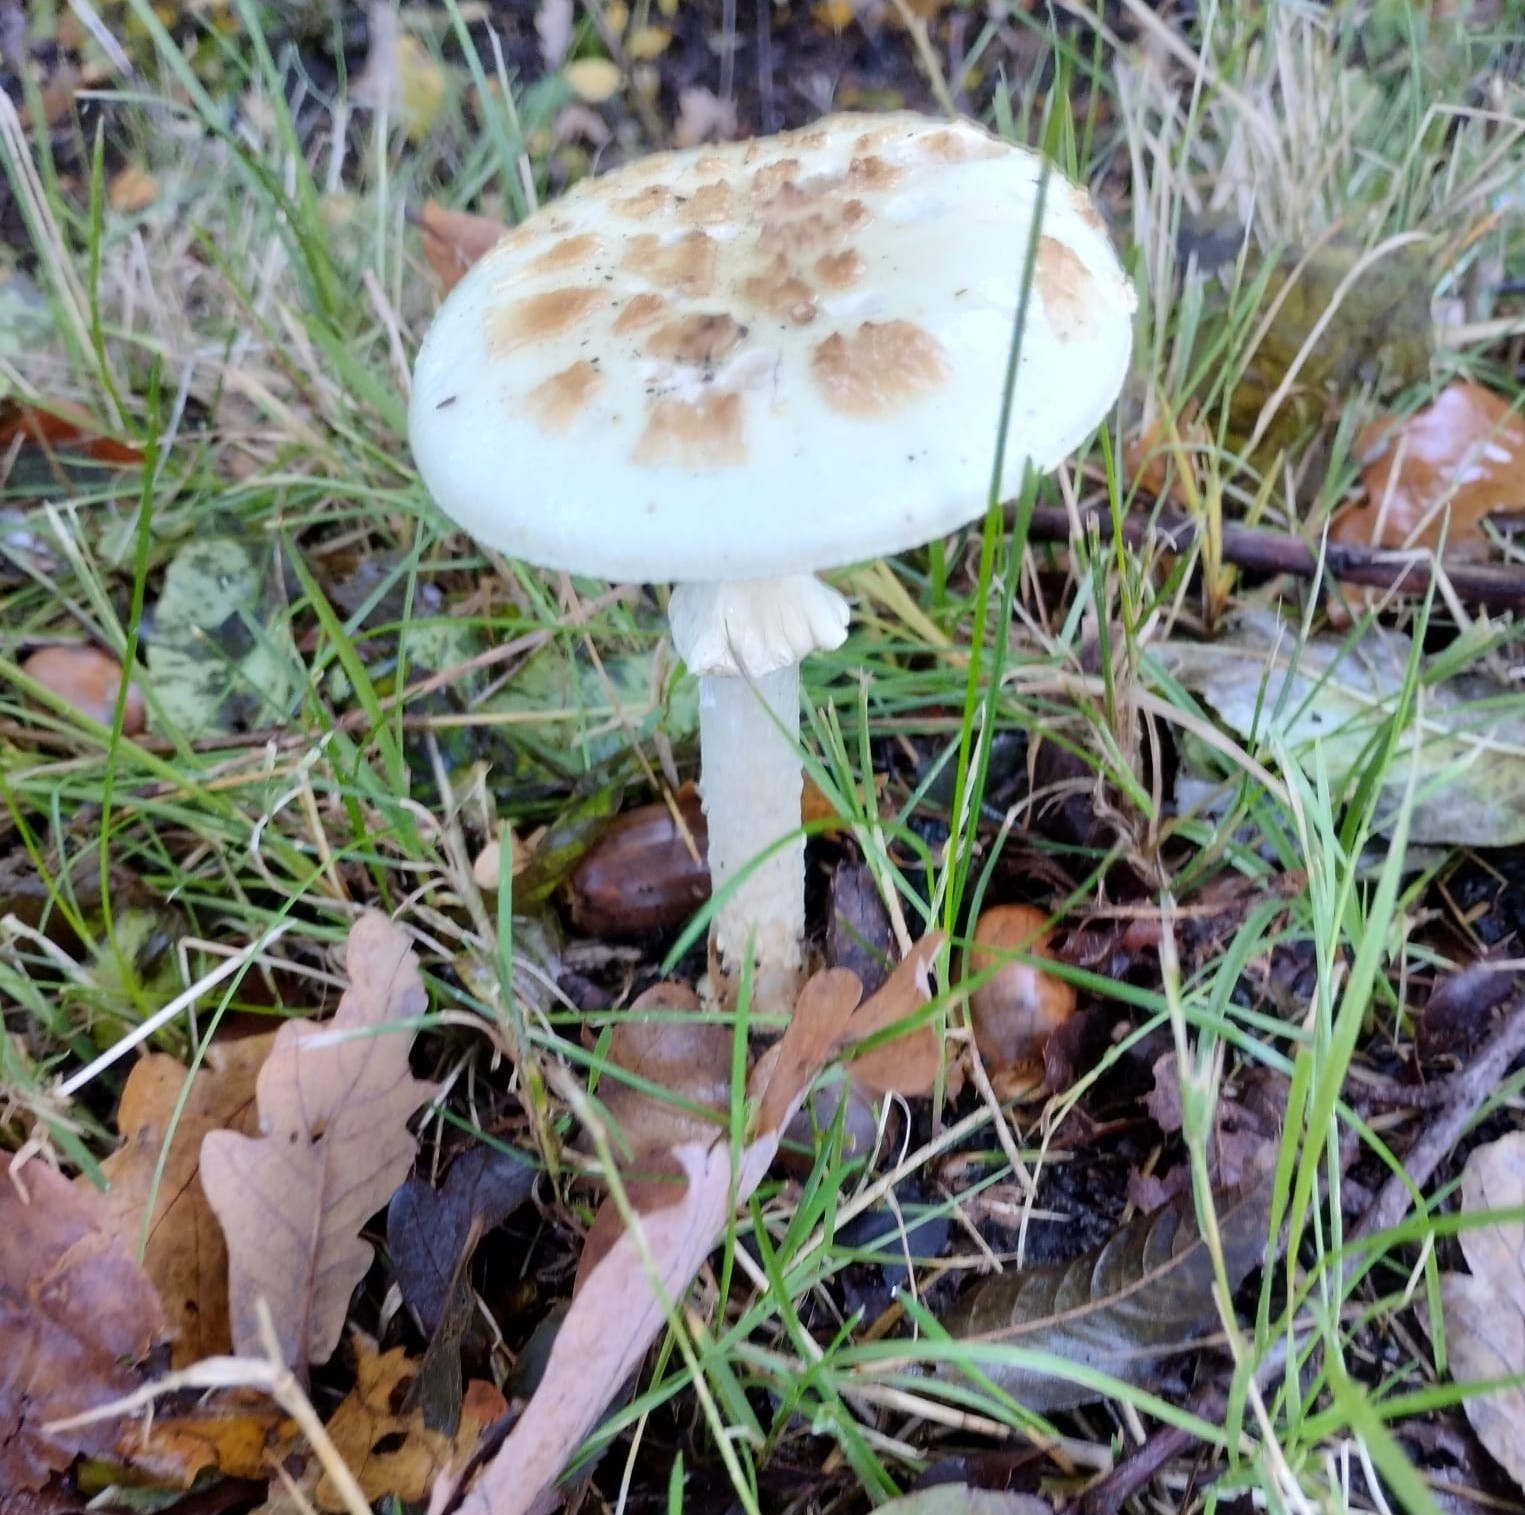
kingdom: Fungi
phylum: Basidiomycota
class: Agaricomycetes
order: Agaricales
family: Amanitaceae
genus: Amanita
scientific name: Amanita citrina
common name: False death-cap
